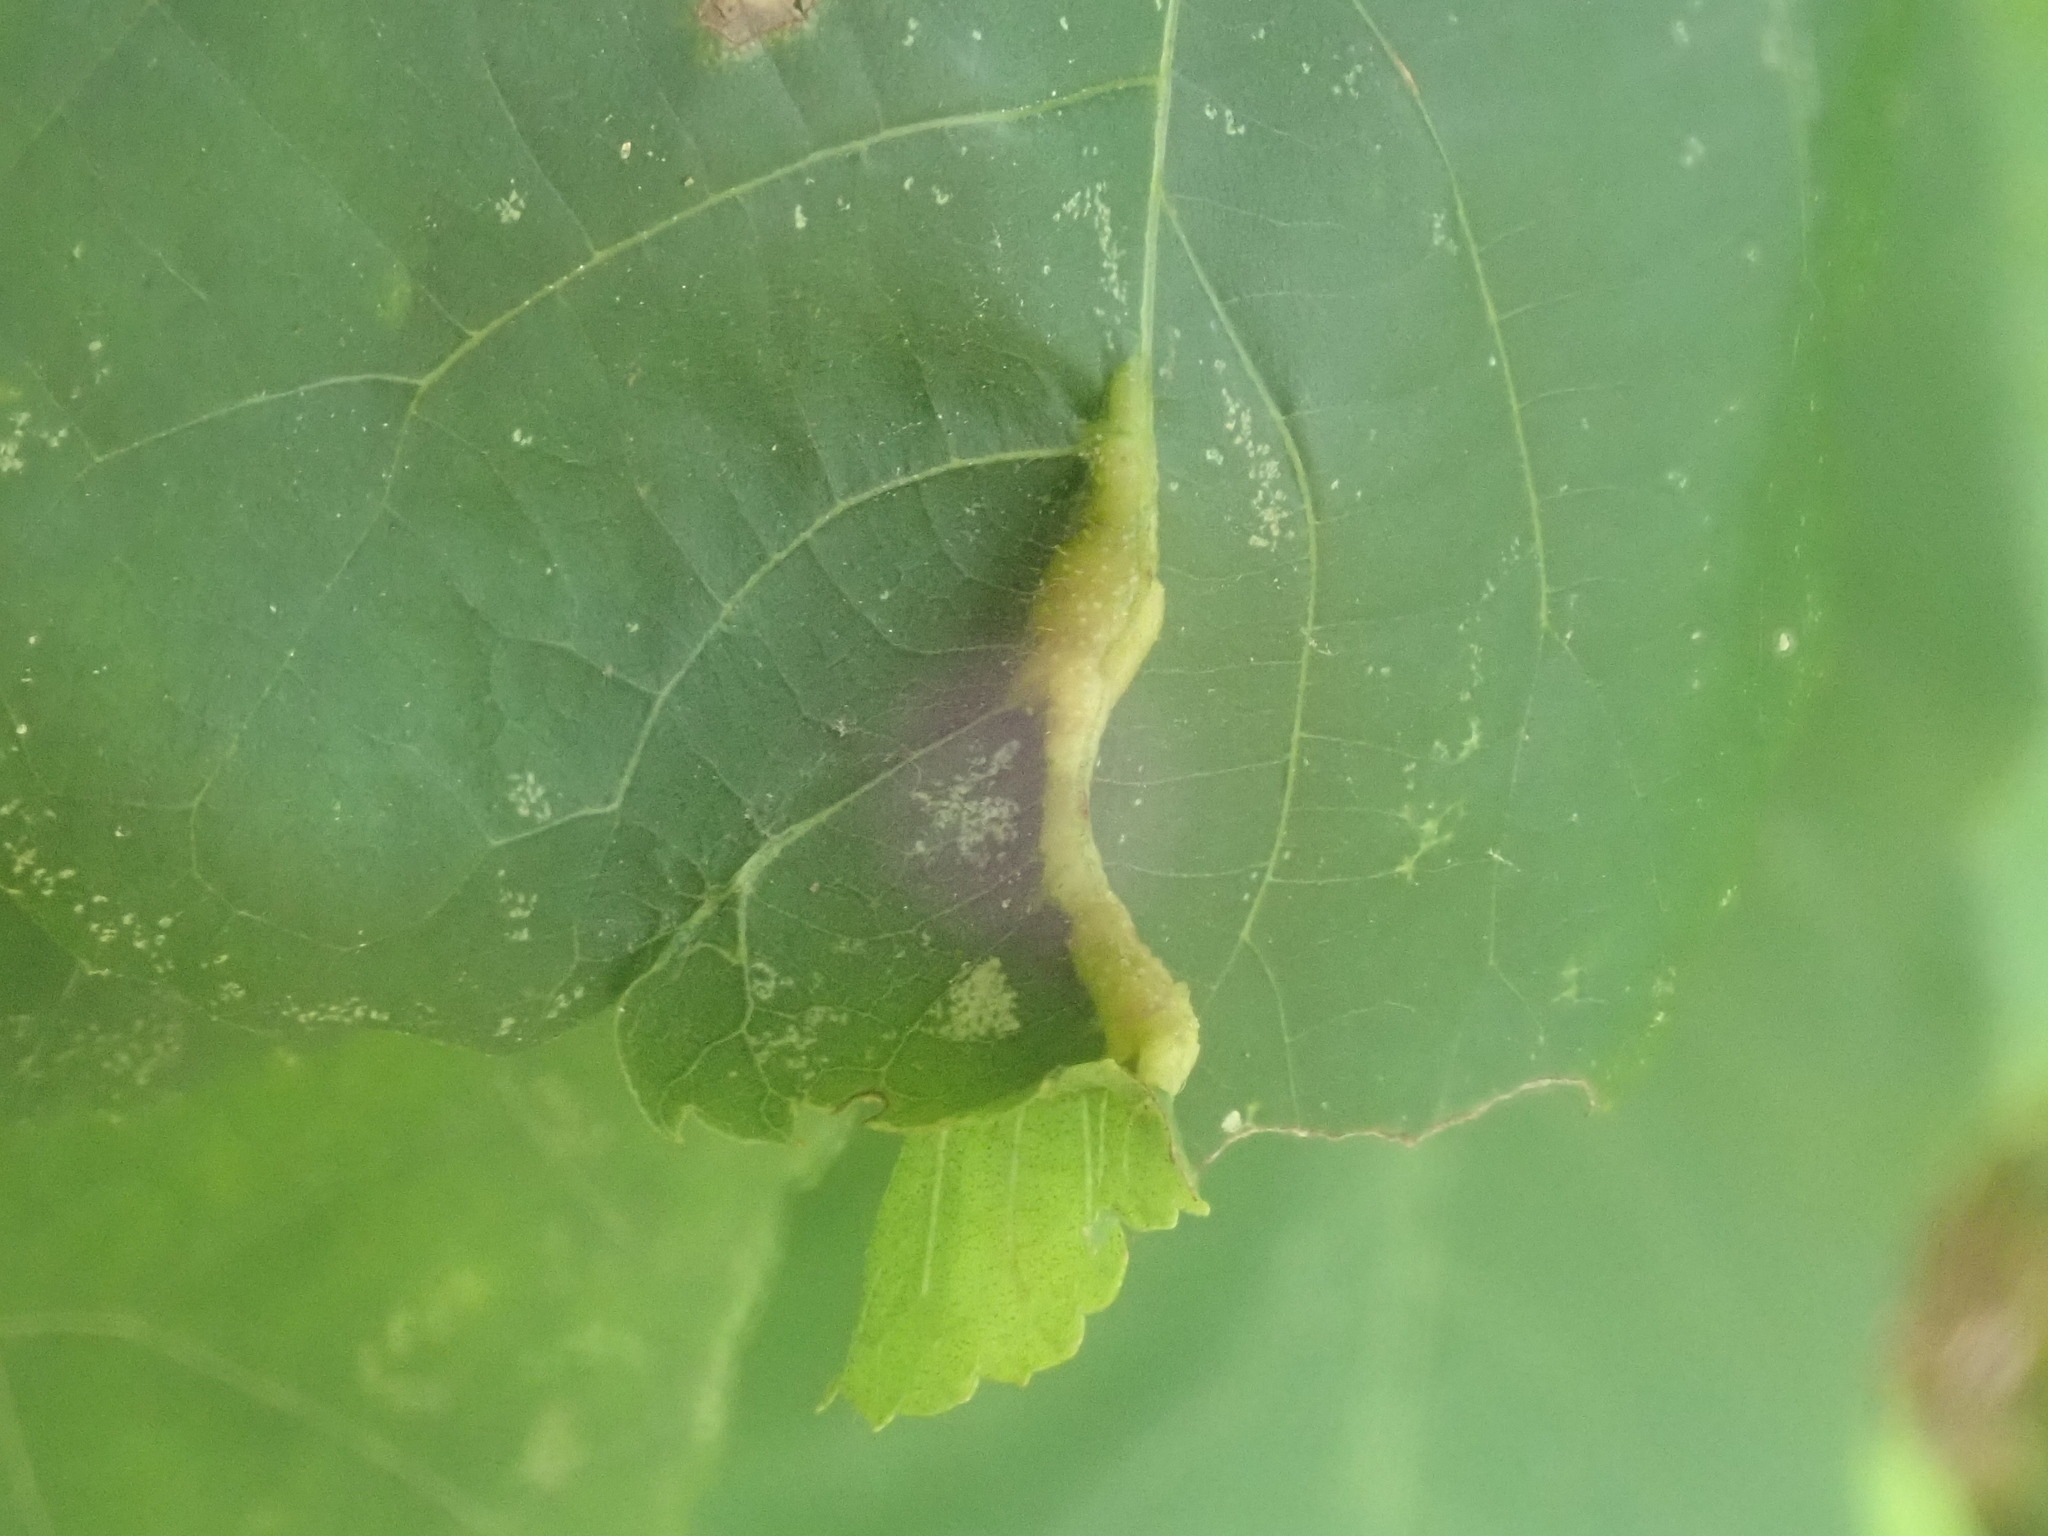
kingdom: Animalia
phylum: Arthropoda
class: Insecta
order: Hemiptera
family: Phylloxeridae
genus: Phylloxera
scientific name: Phylloxera caryaevenae
